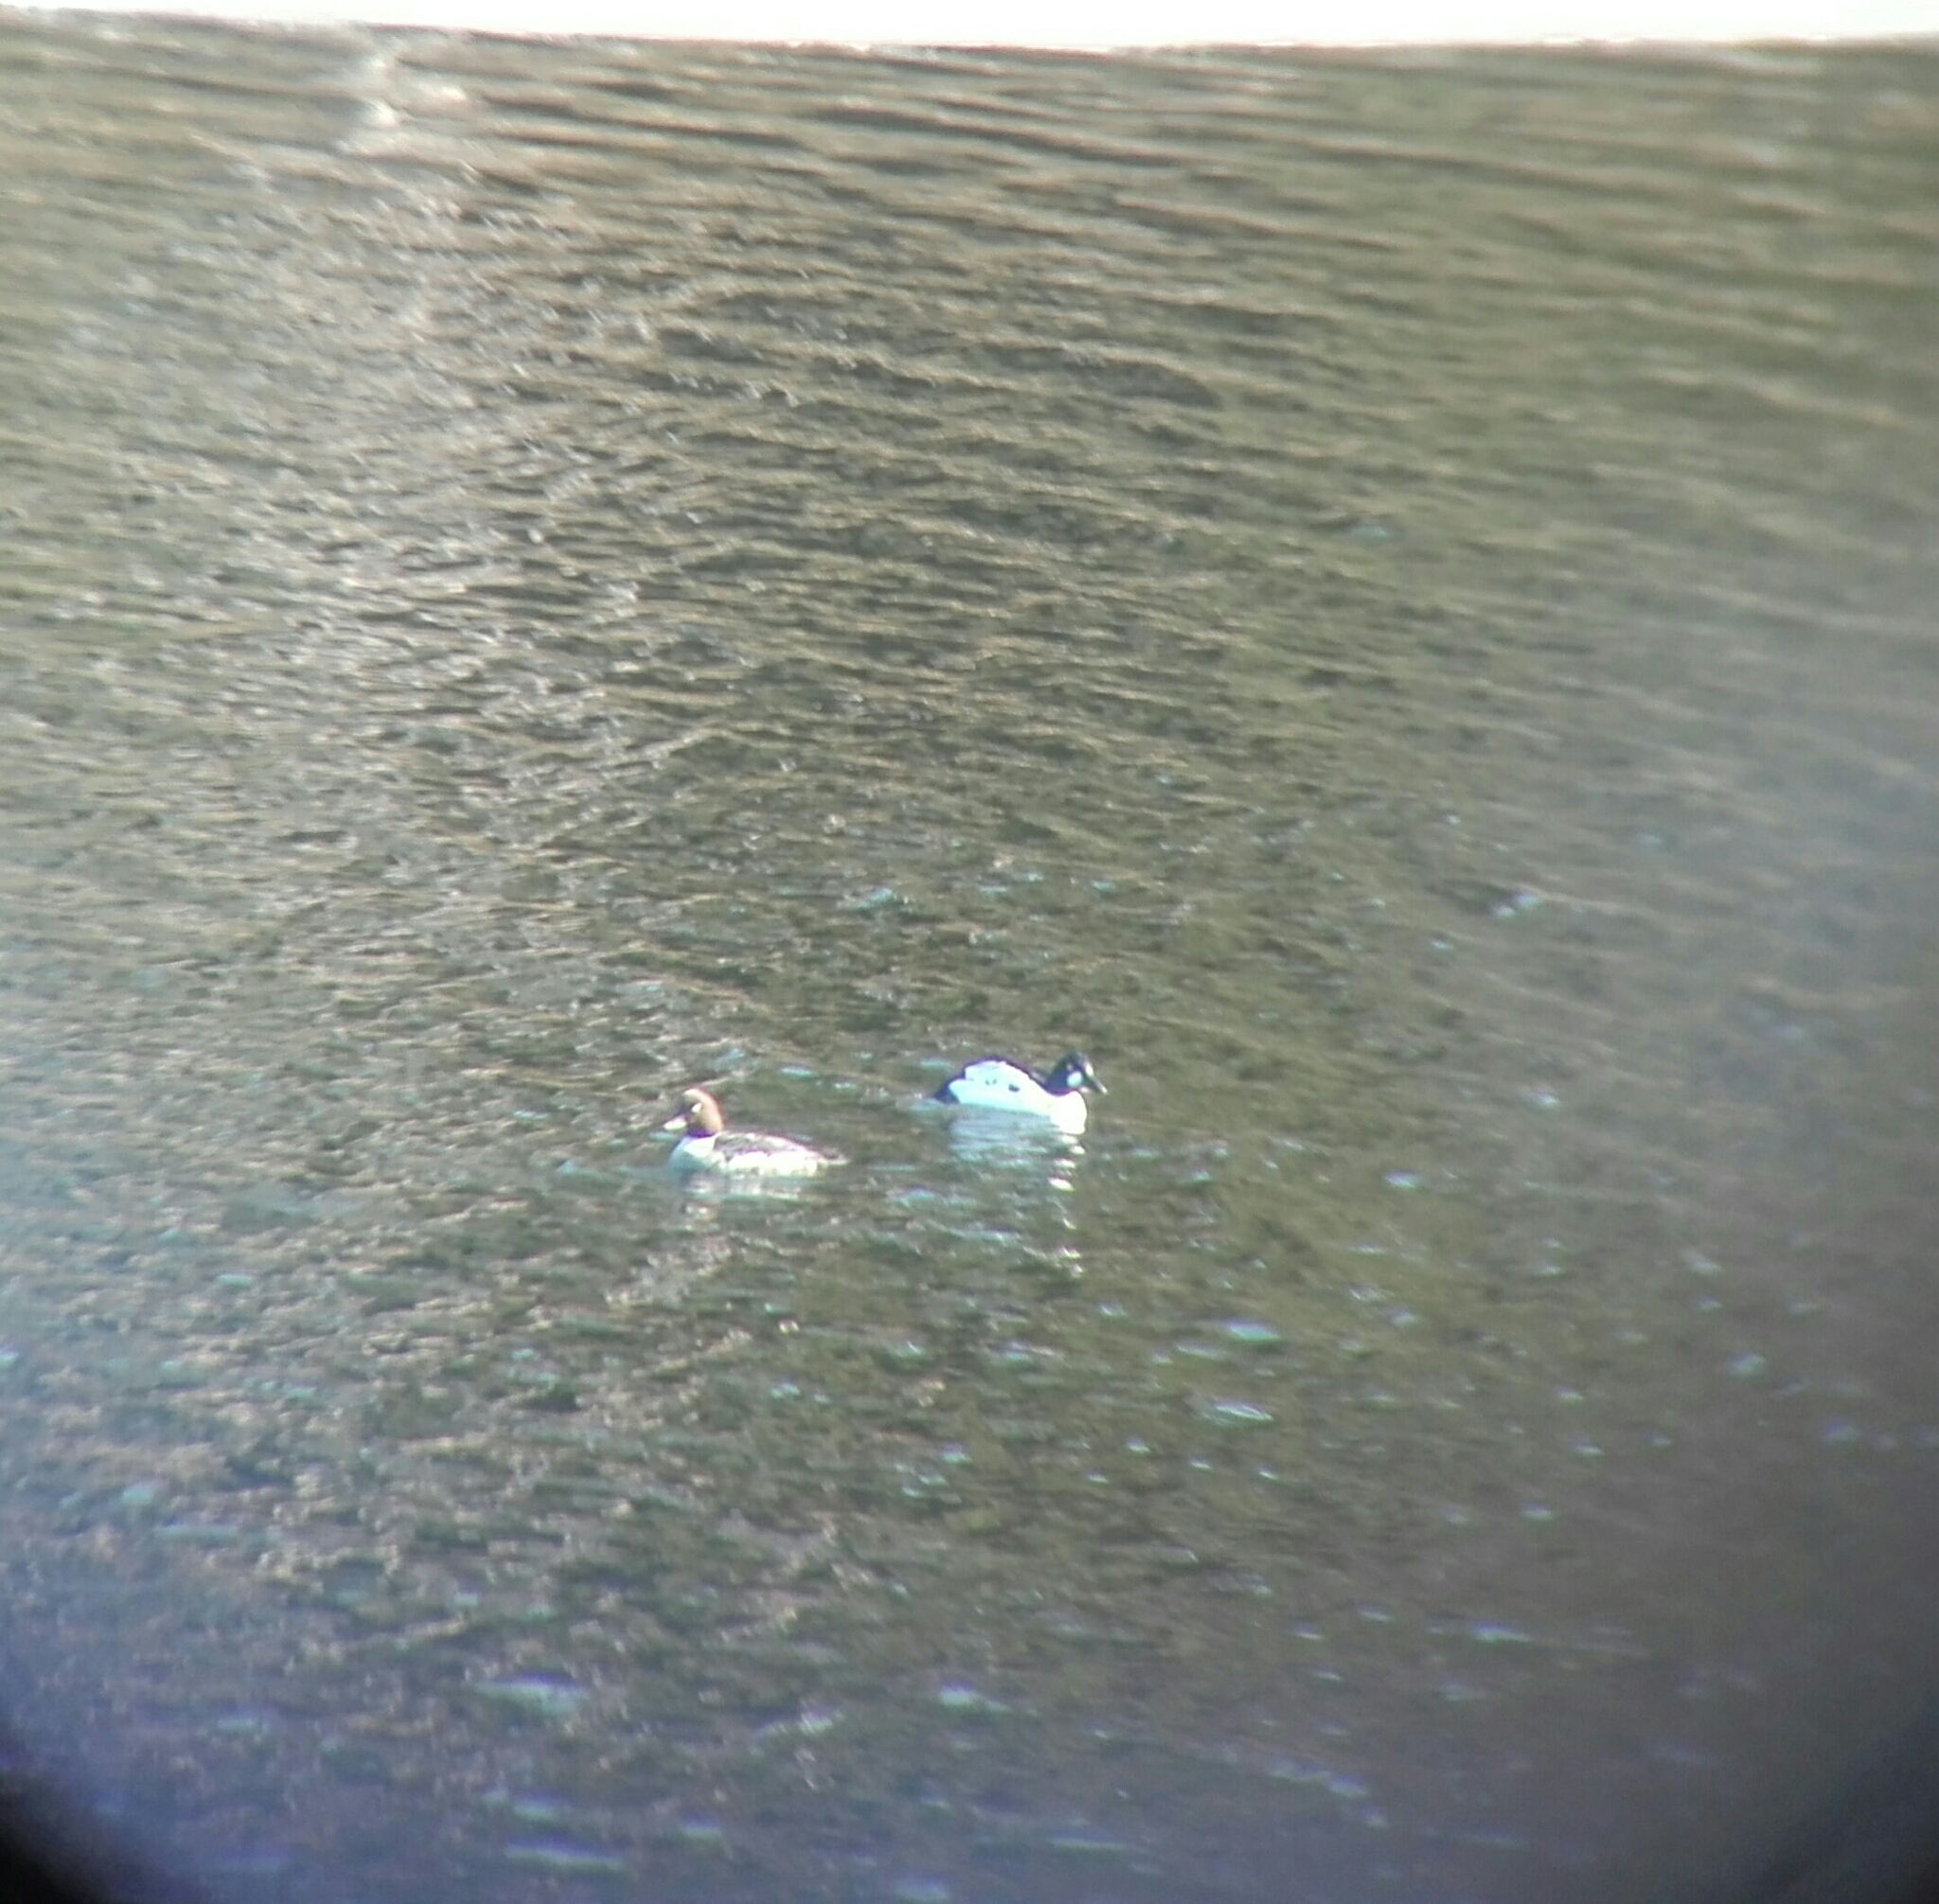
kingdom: Animalia
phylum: Chordata
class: Aves
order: Anseriformes
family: Anatidae
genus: Bucephala
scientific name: Bucephala clangula
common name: Common goldeneye
